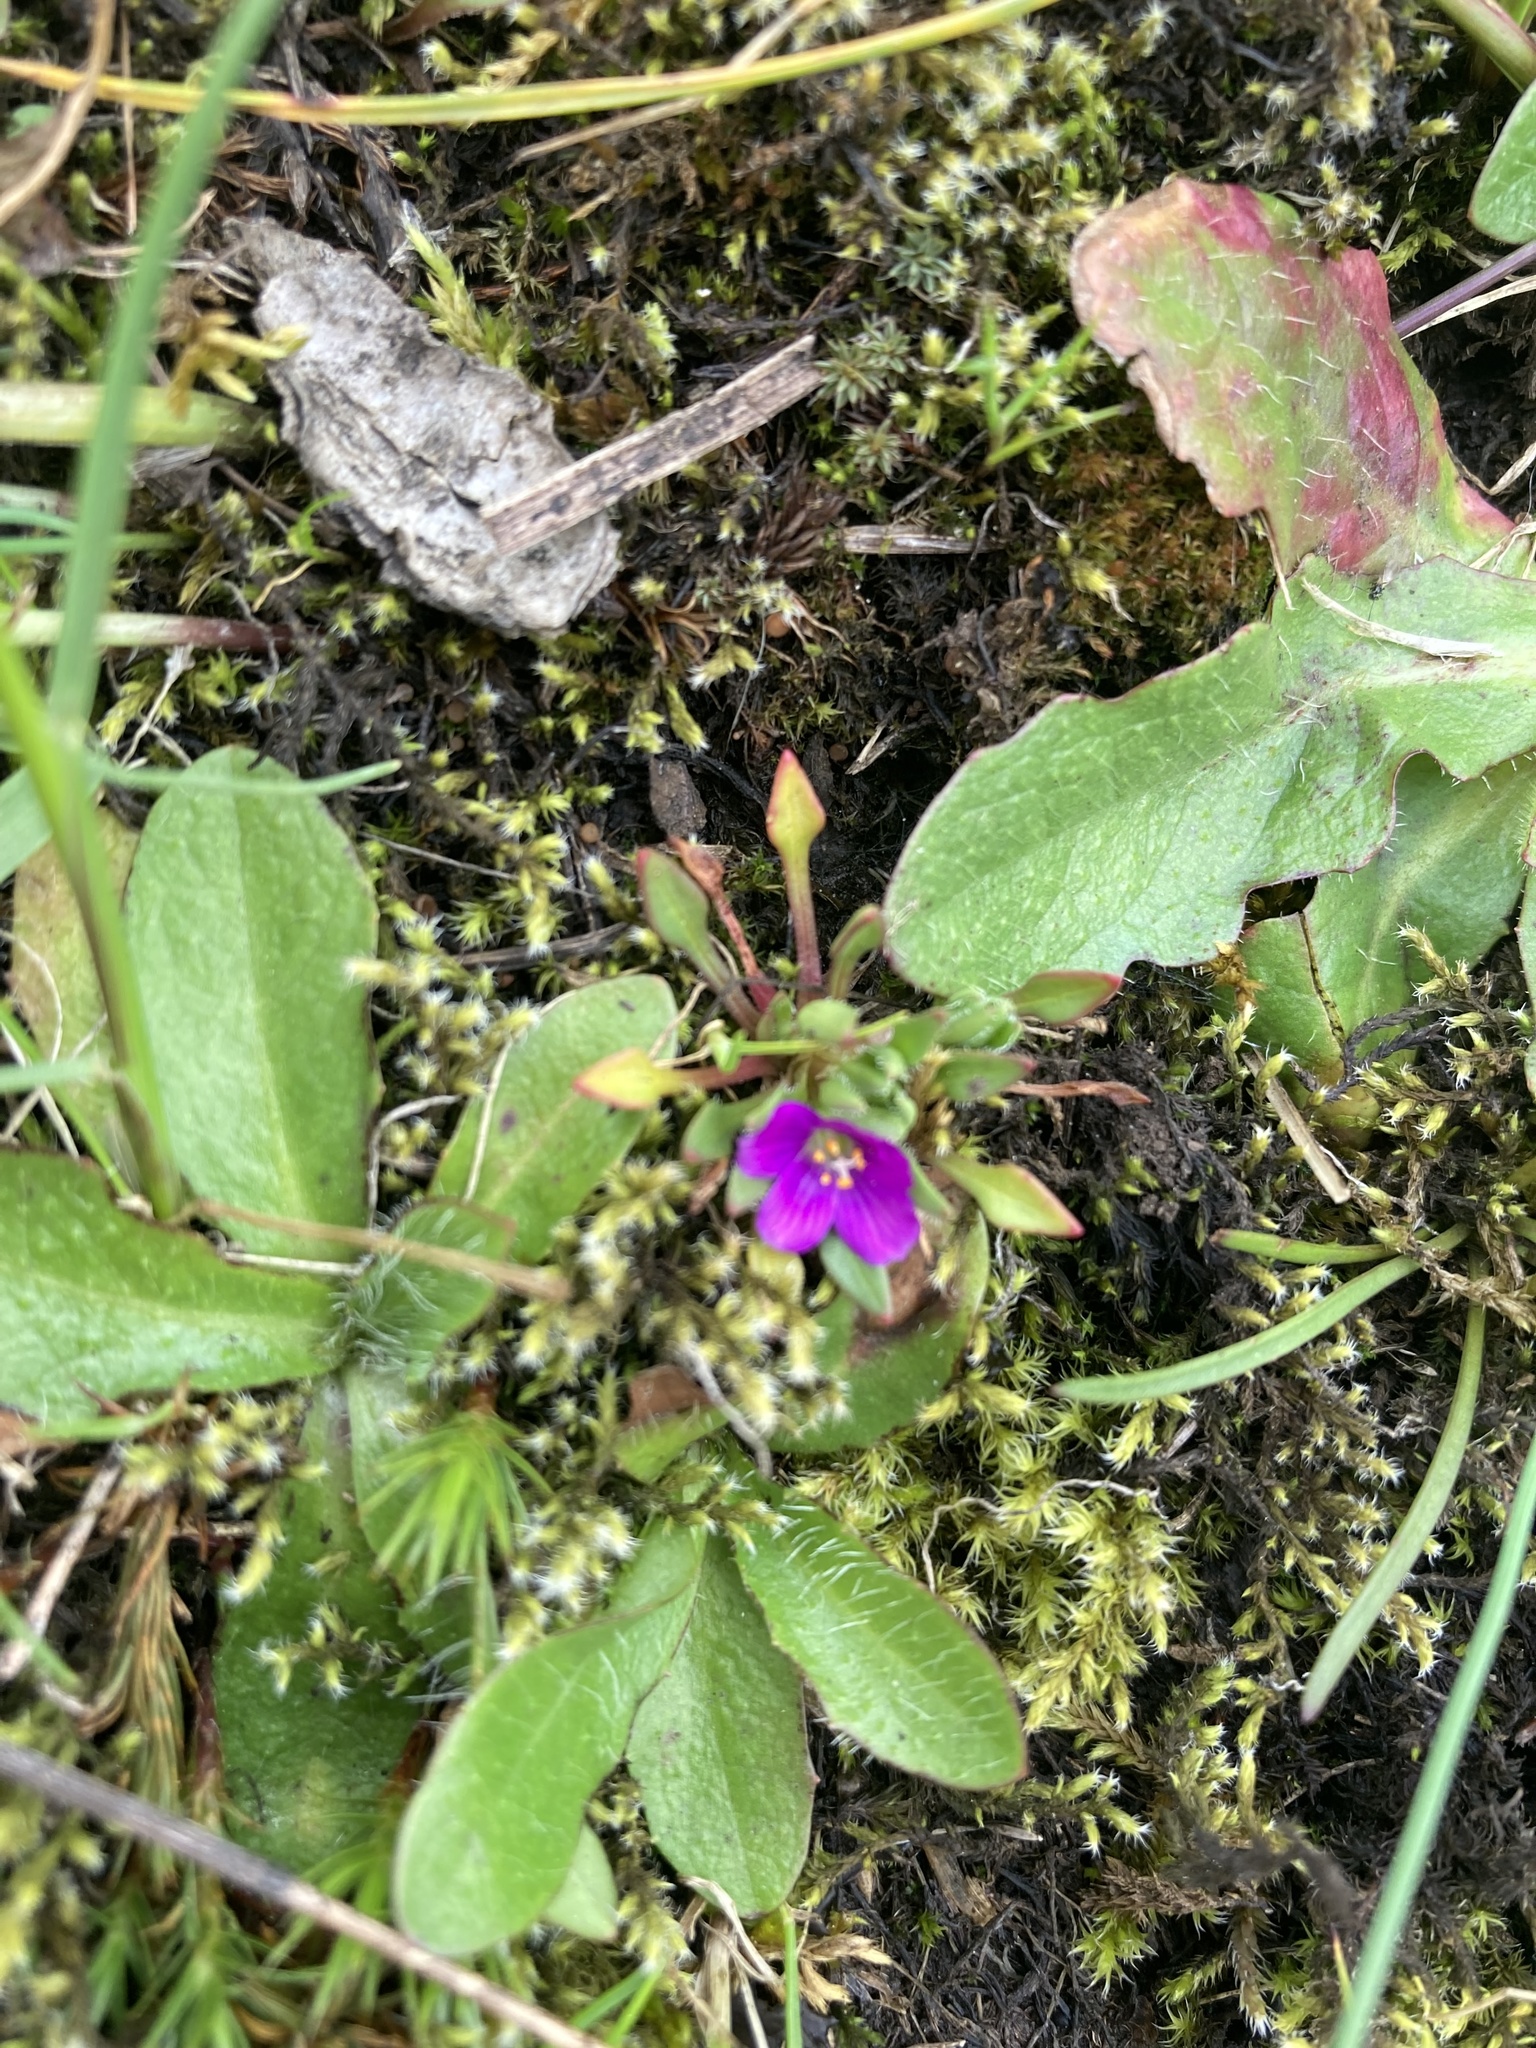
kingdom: Plantae
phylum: Tracheophyta
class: Magnoliopsida
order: Caryophyllales
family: Montiaceae
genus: Calandrinia
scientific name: Calandrinia menziesii
